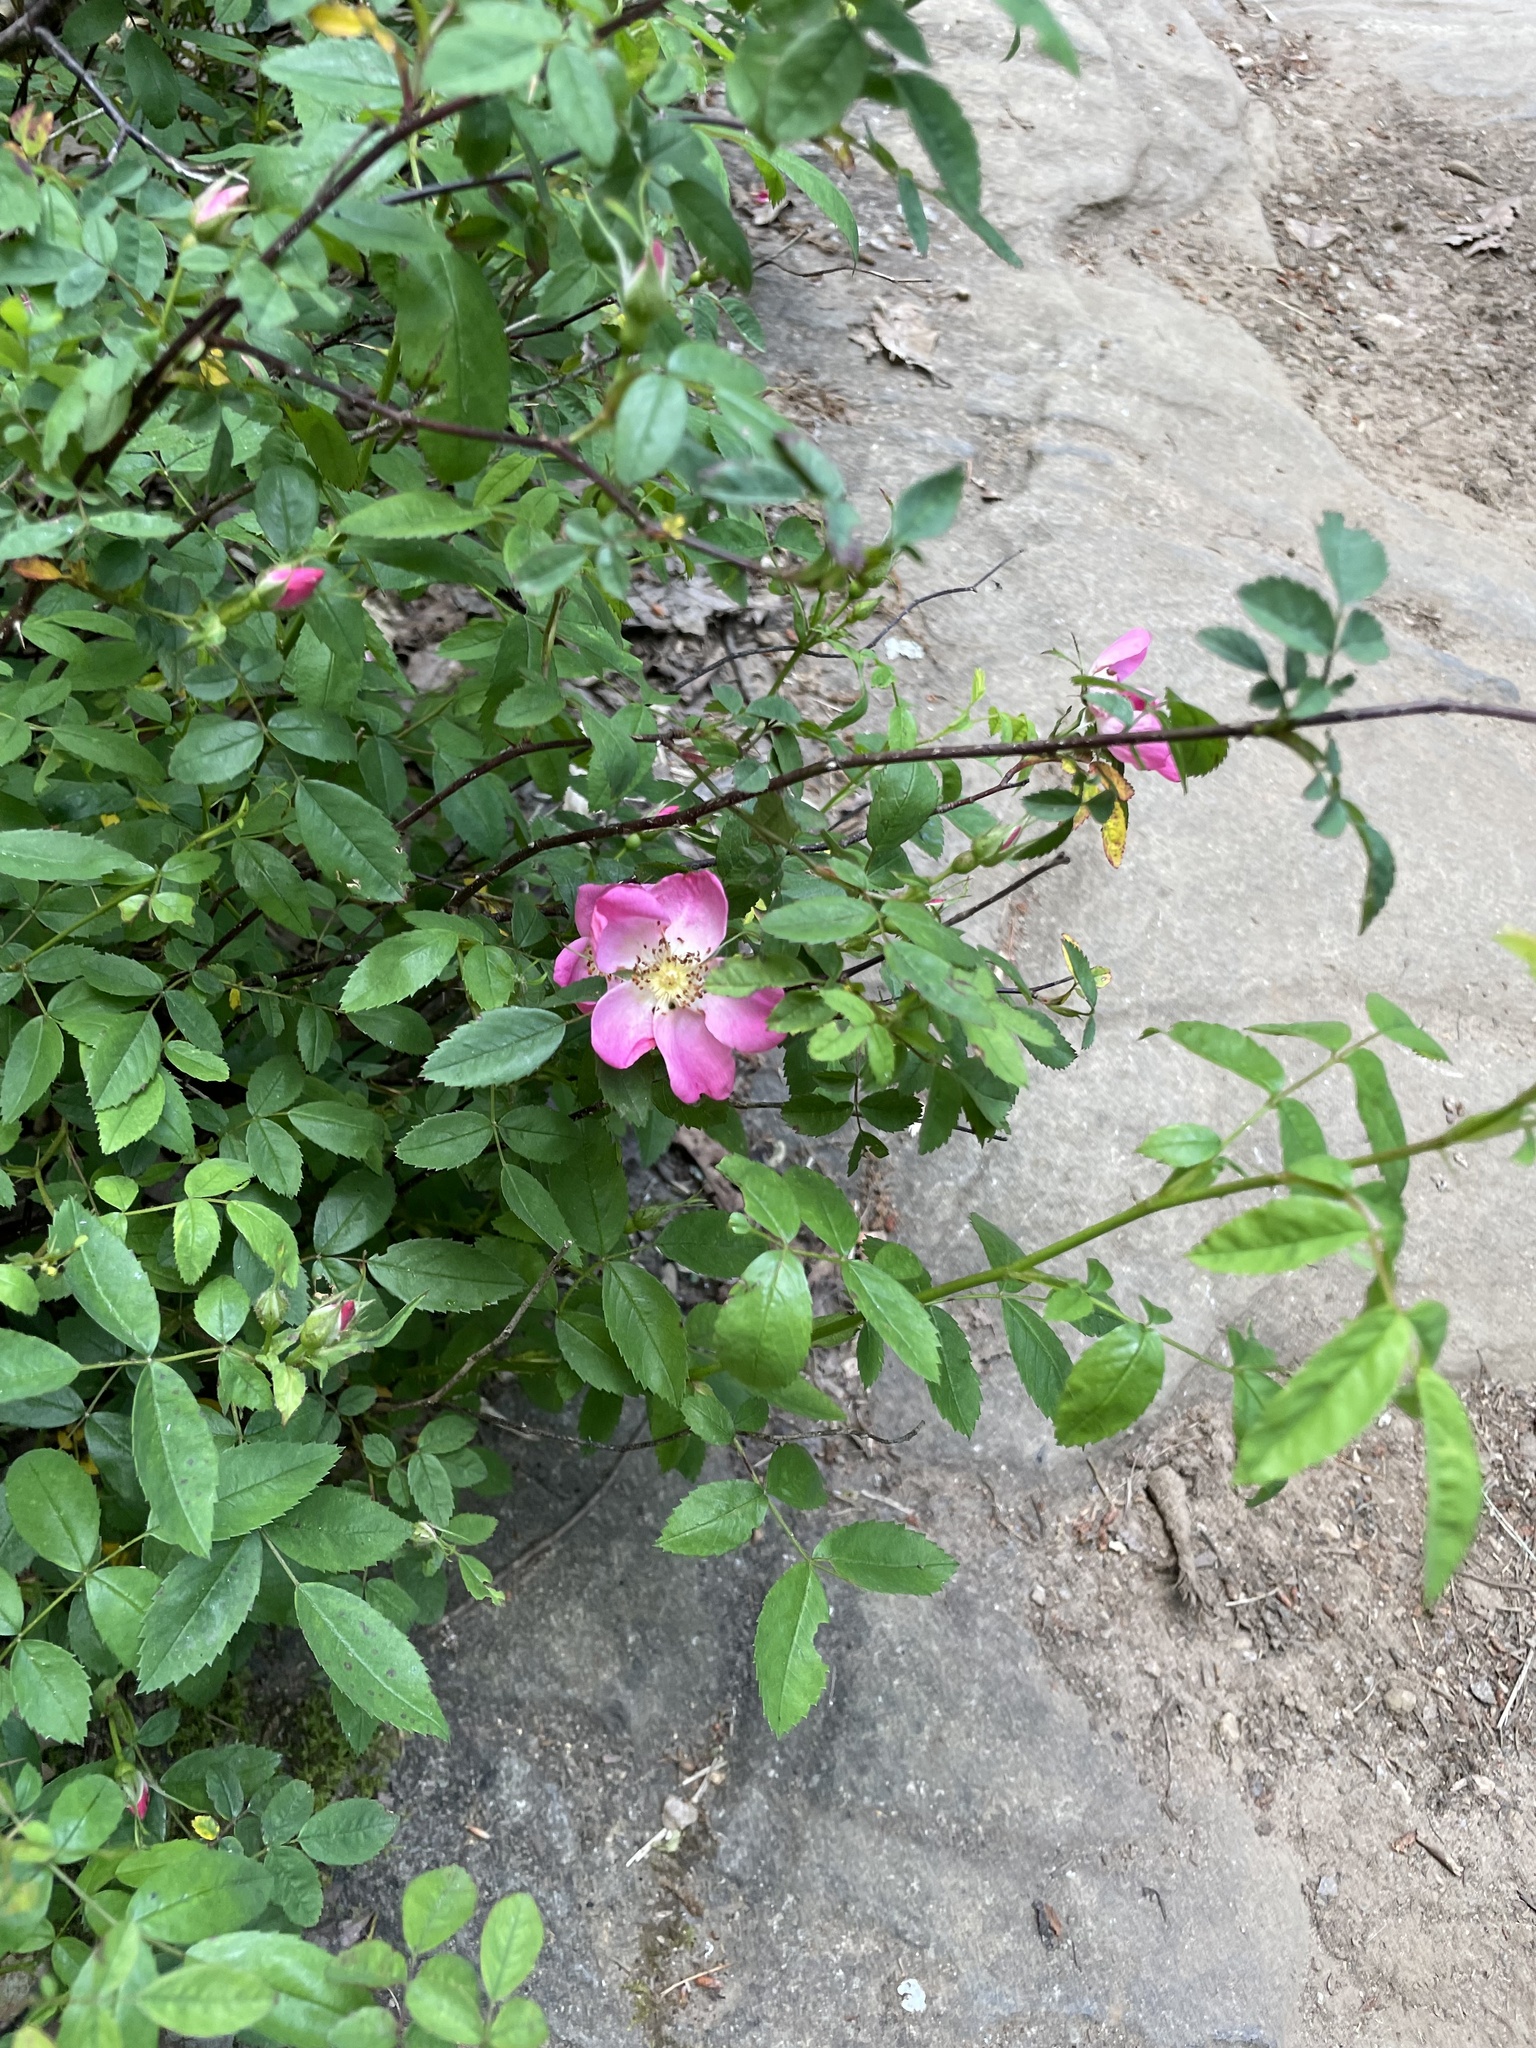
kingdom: Plantae
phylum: Tracheophyta
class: Magnoliopsida
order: Rosales
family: Rosaceae
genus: Rosa
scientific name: Rosa carolina
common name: Pasture rose
